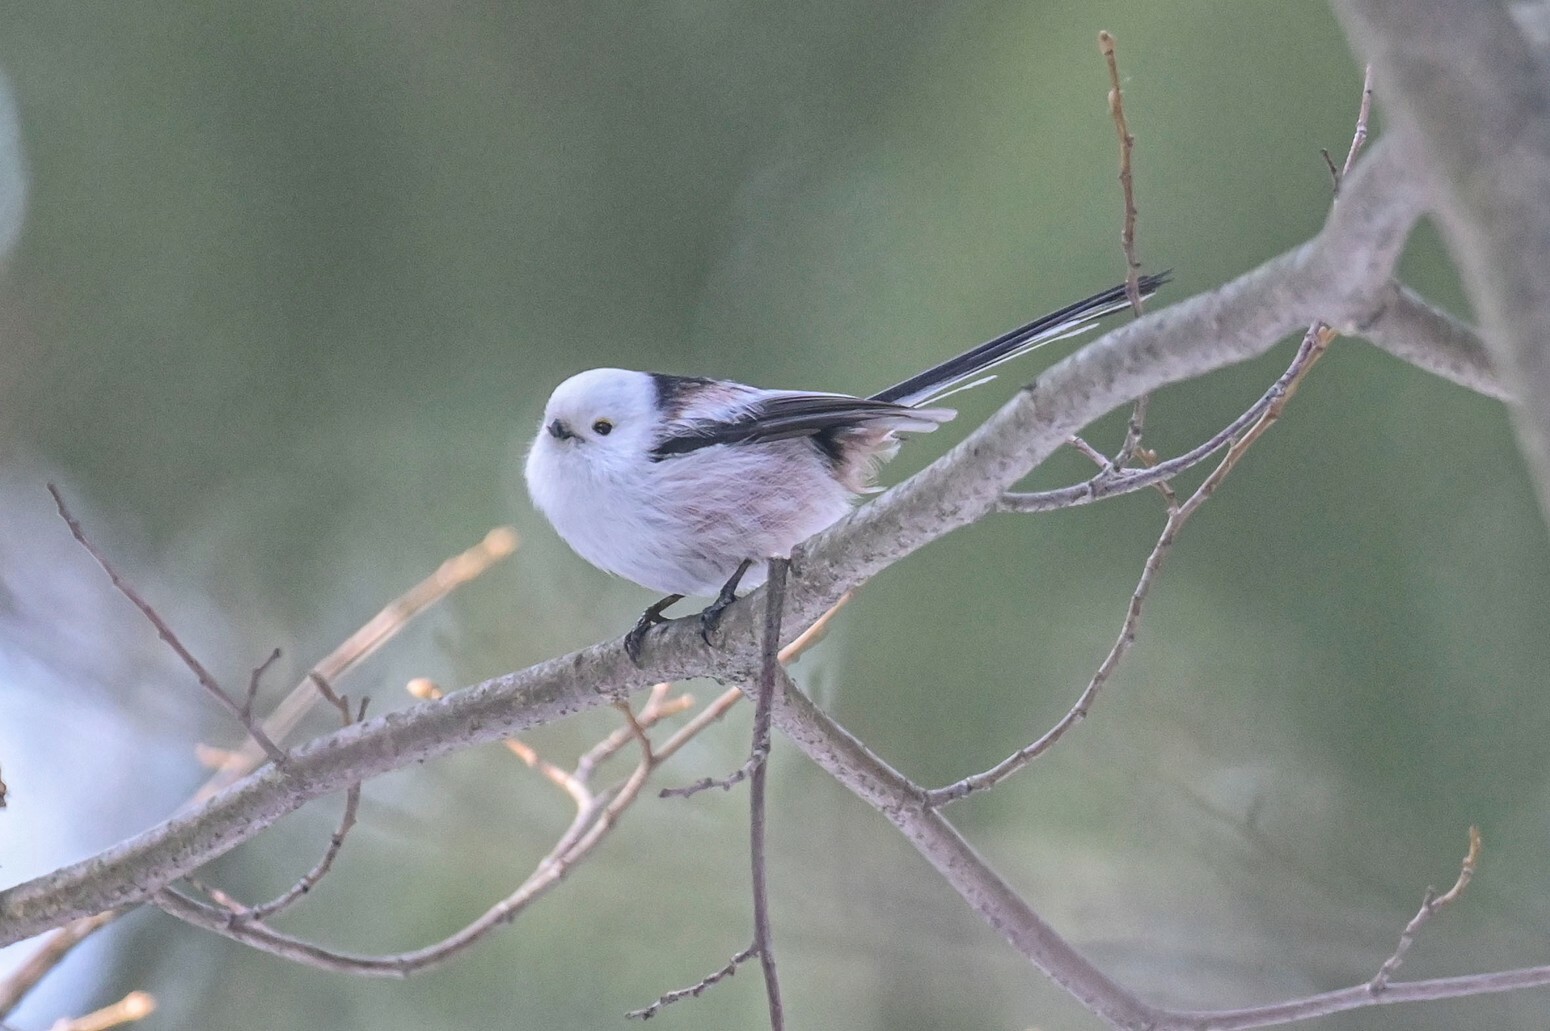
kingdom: Animalia
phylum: Chordata
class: Aves
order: Passeriformes
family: Aegithalidae
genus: Aegithalos
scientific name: Aegithalos caudatus
